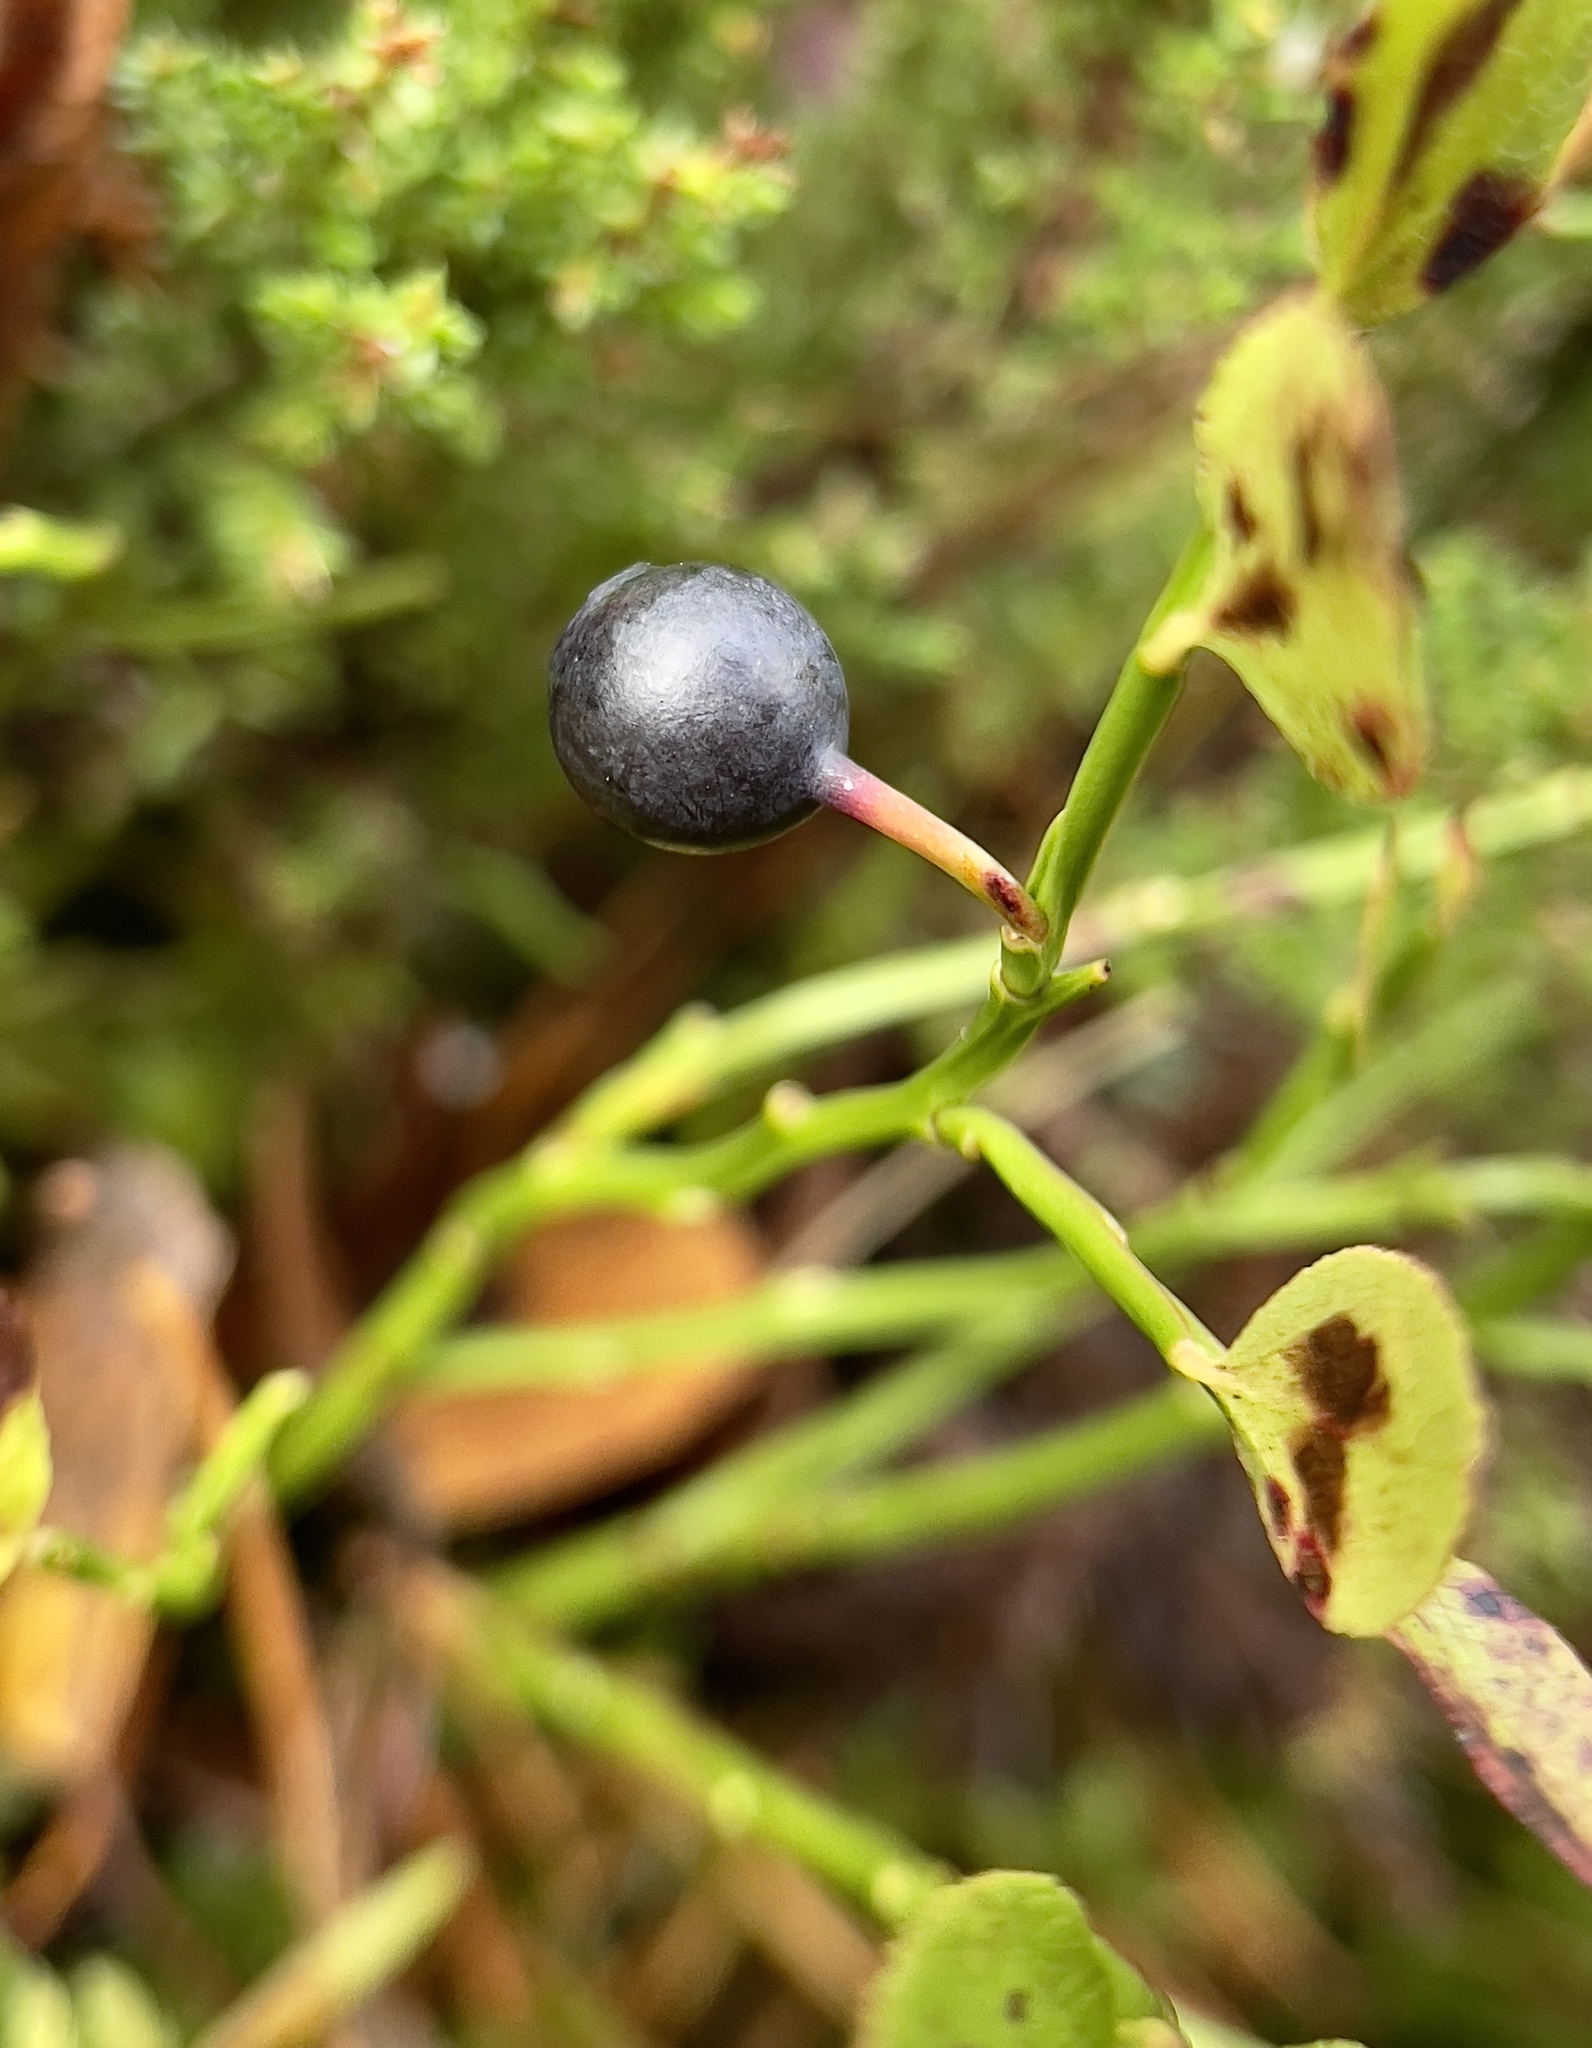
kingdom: Plantae
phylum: Tracheophyta
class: Magnoliopsida
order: Ericales
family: Ericaceae
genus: Vaccinium
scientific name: Vaccinium myrtillus
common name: Bilberry
